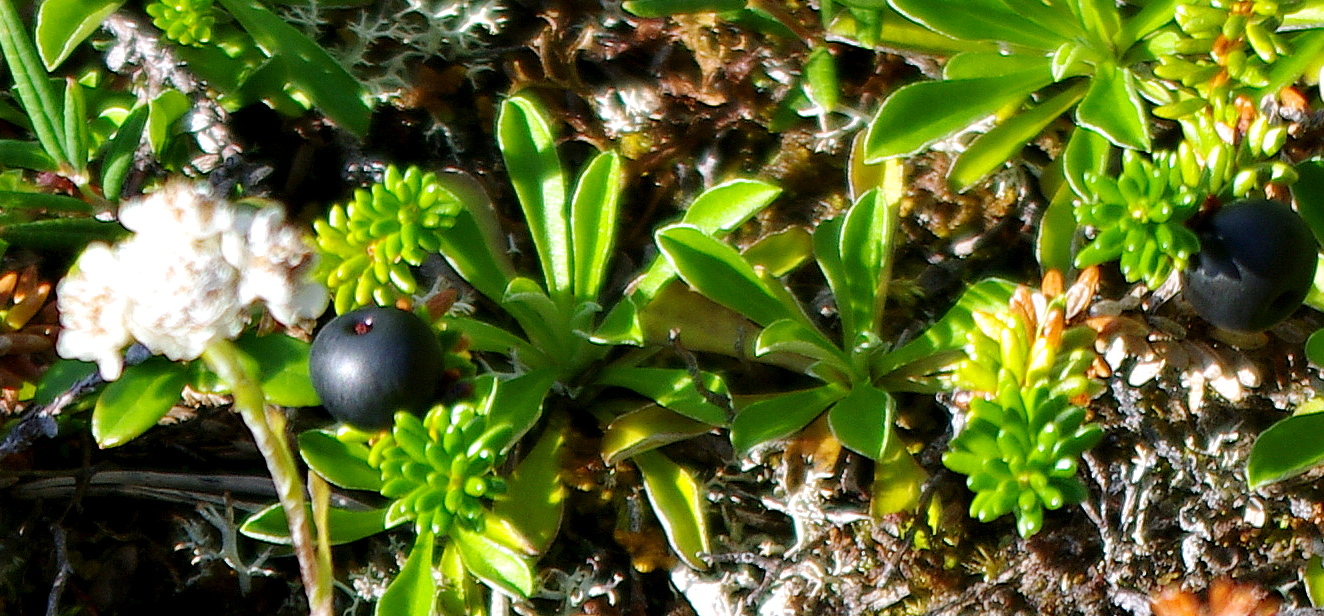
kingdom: Plantae
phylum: Tracheophyta
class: Magnoliopsida
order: Asterales
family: Asteraceae
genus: Antennaria
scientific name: Antennaria dioica
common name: Mountain everlasting
